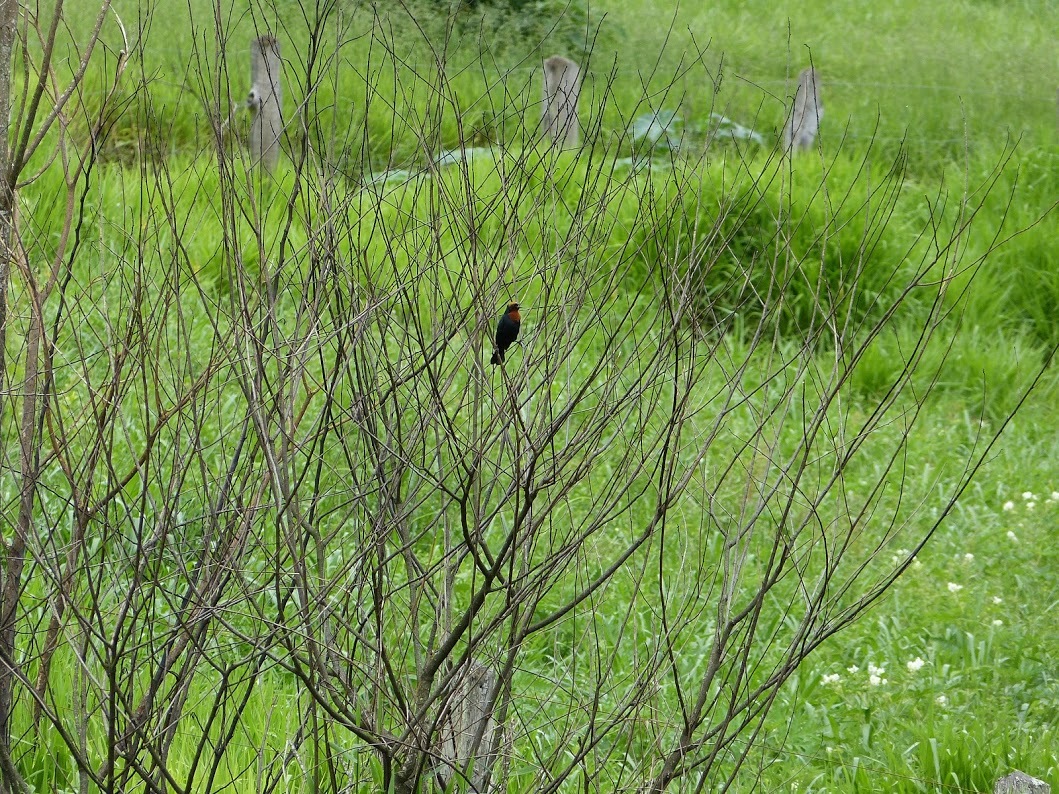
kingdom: Animalia
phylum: Chordata
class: Aves
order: Passeriformes
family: Icteridae
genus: Chrysomus
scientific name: Chrysomus ruficapillus
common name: Chestnut-capped blackbird
